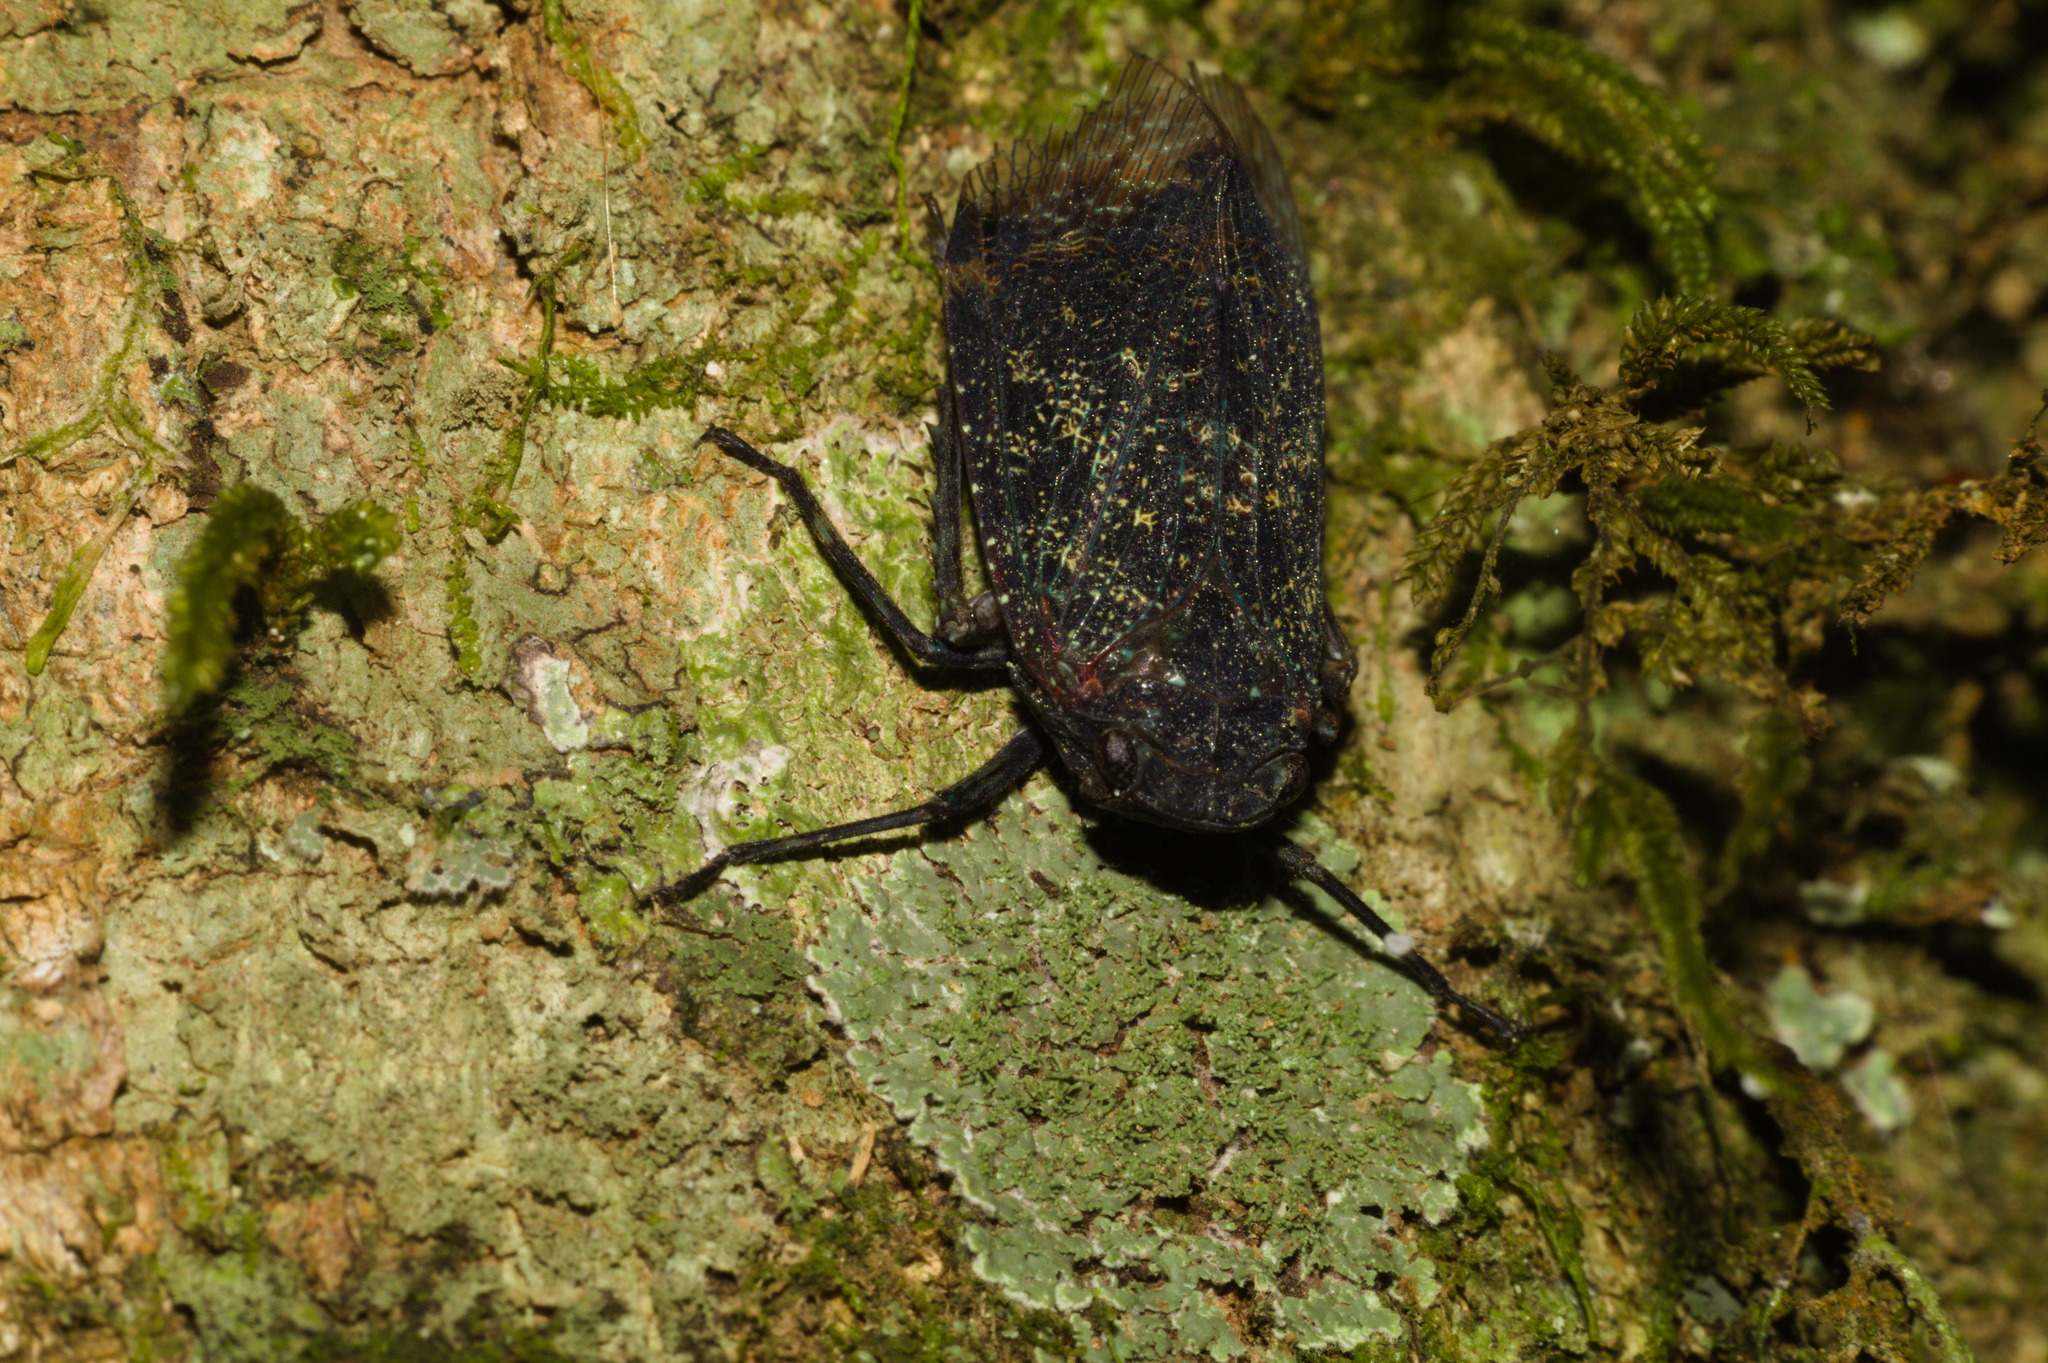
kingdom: Animalia
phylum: Arthropoda
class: Insecta
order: Hemiptera
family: Fulgoridae
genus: Crepusia
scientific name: Crepusia miniacea
